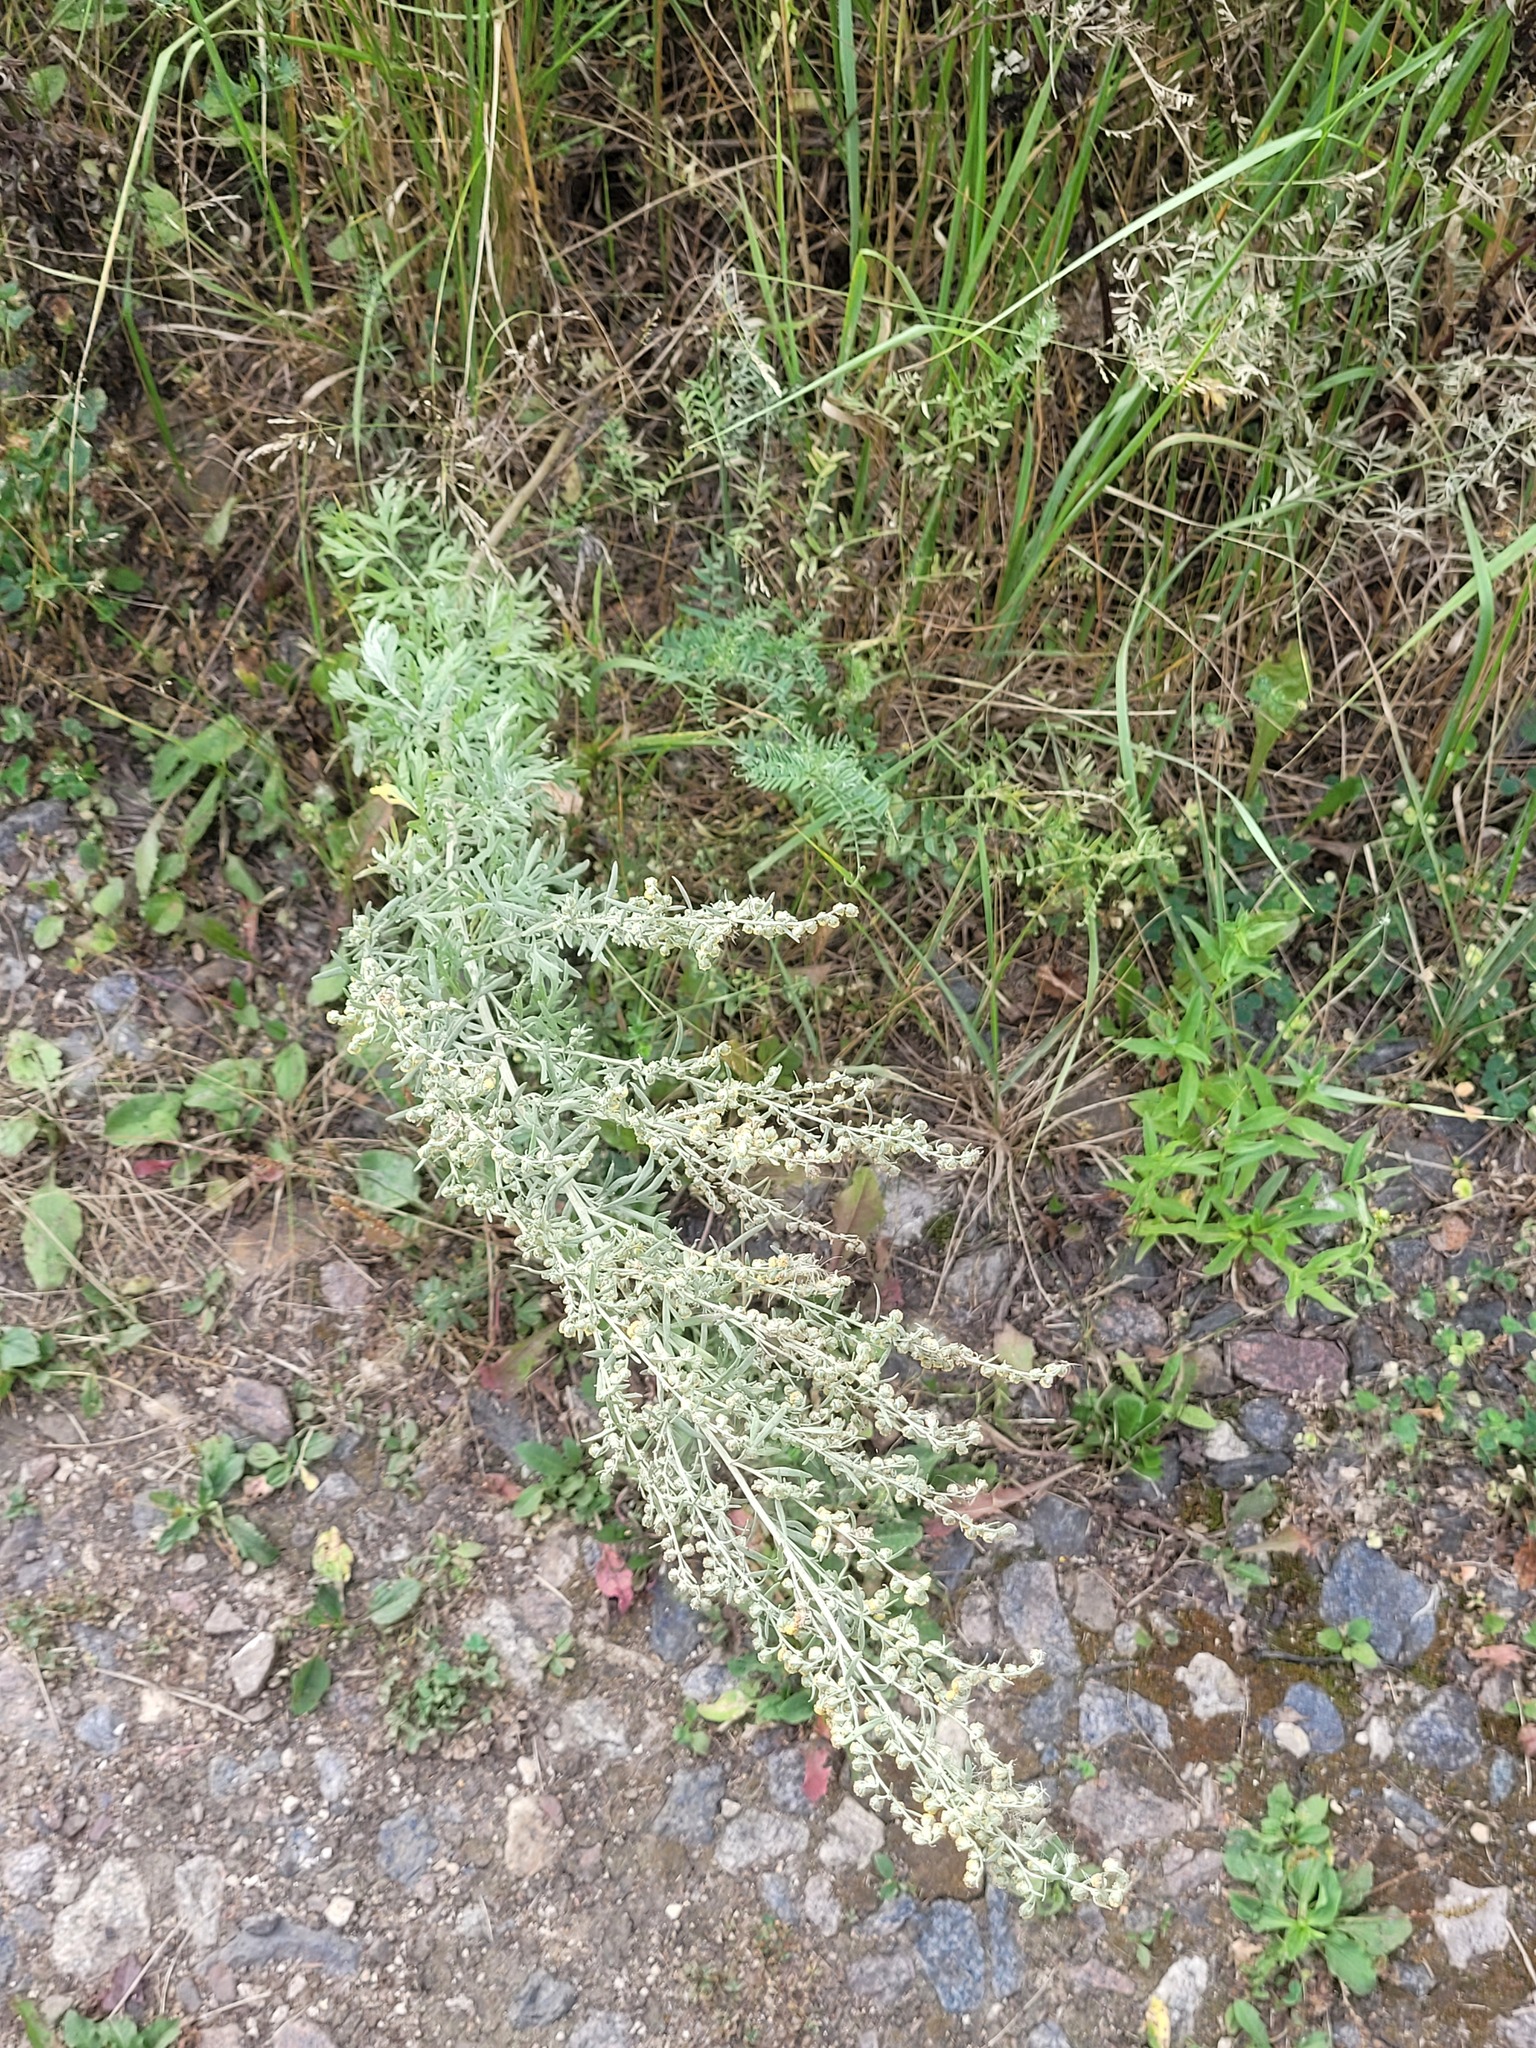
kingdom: Plantae
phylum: Tracheophyta
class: Magnoliopsida
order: Asterales
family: Asteraceae
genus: Artemisia
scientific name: Artemisia absinthium
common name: Wormwood
